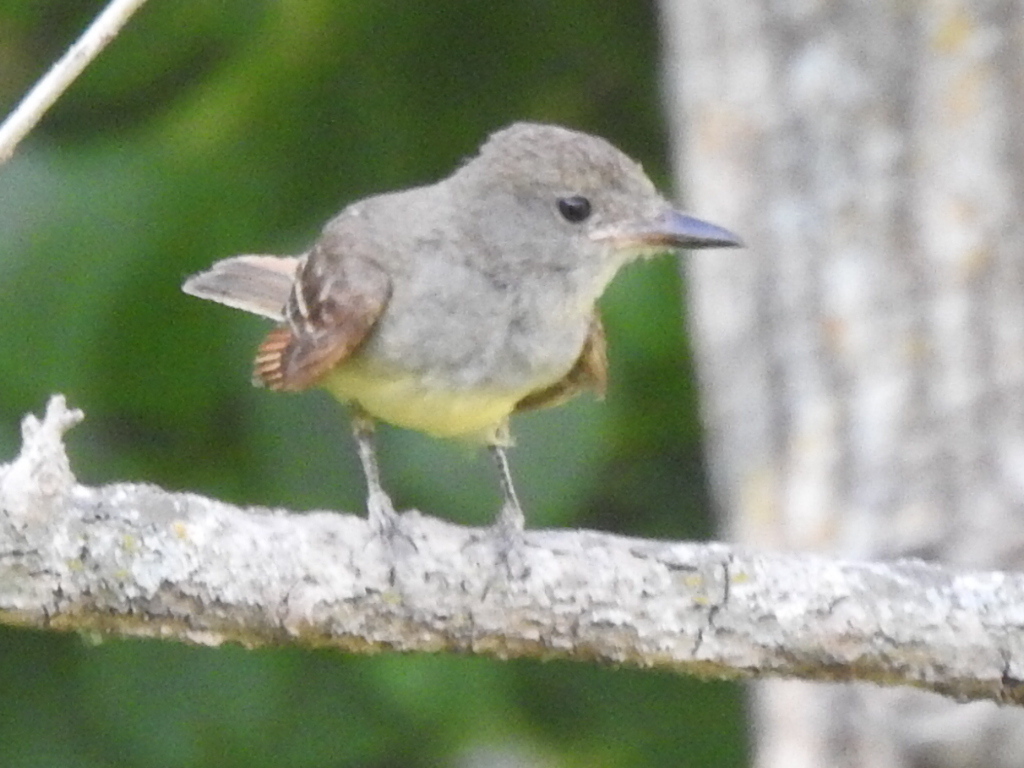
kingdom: Animalia
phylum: Chordata
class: Aves
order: Passeriformes
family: Tyrannidae
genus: Myiarchus
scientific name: Myiarchus crinitus
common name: Great crested flycatcher
